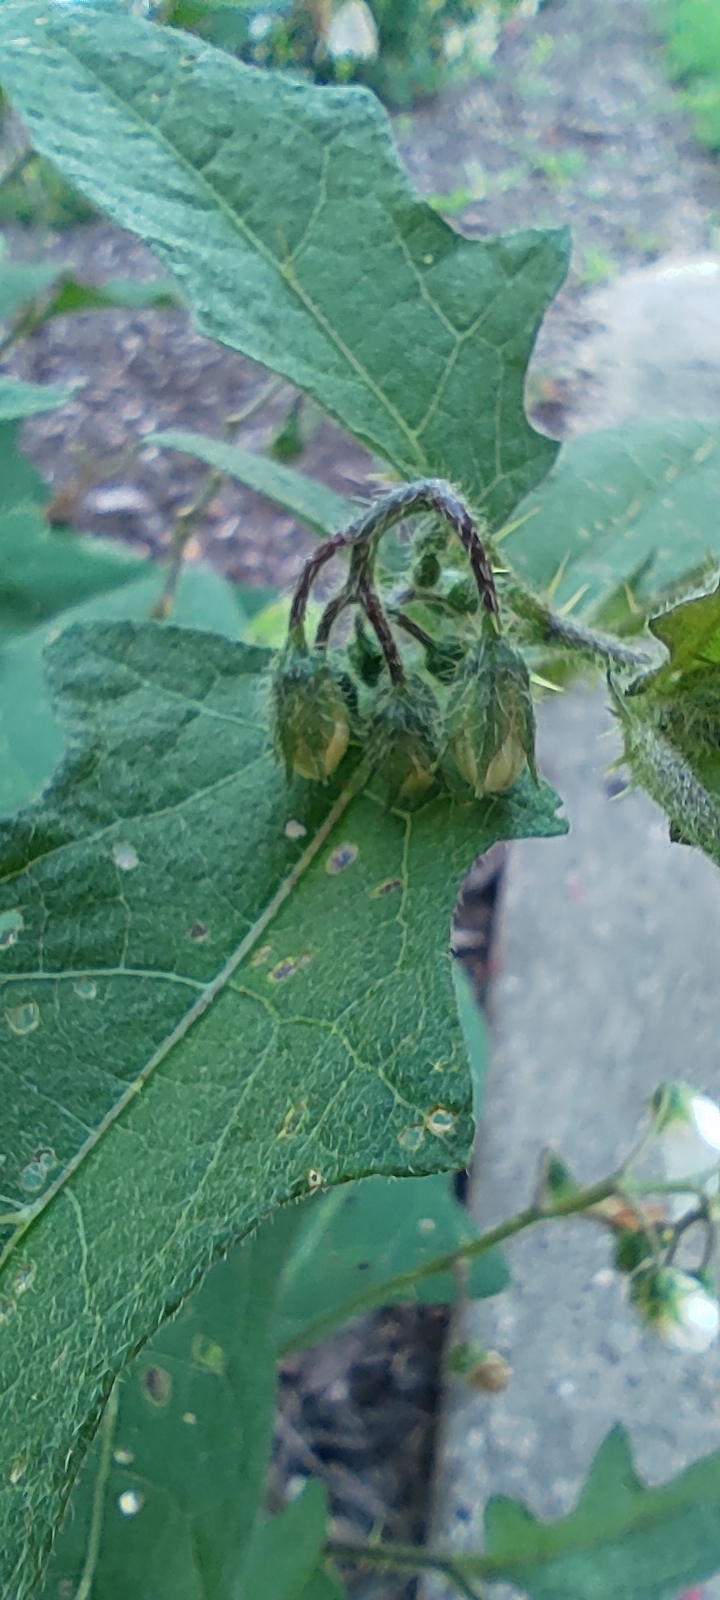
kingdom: Plantae
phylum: Tracheophyta
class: Magnoliopsida
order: Solanales
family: Solanaceae
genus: Solanum
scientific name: Solanum carolinense
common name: Horse-nettle
